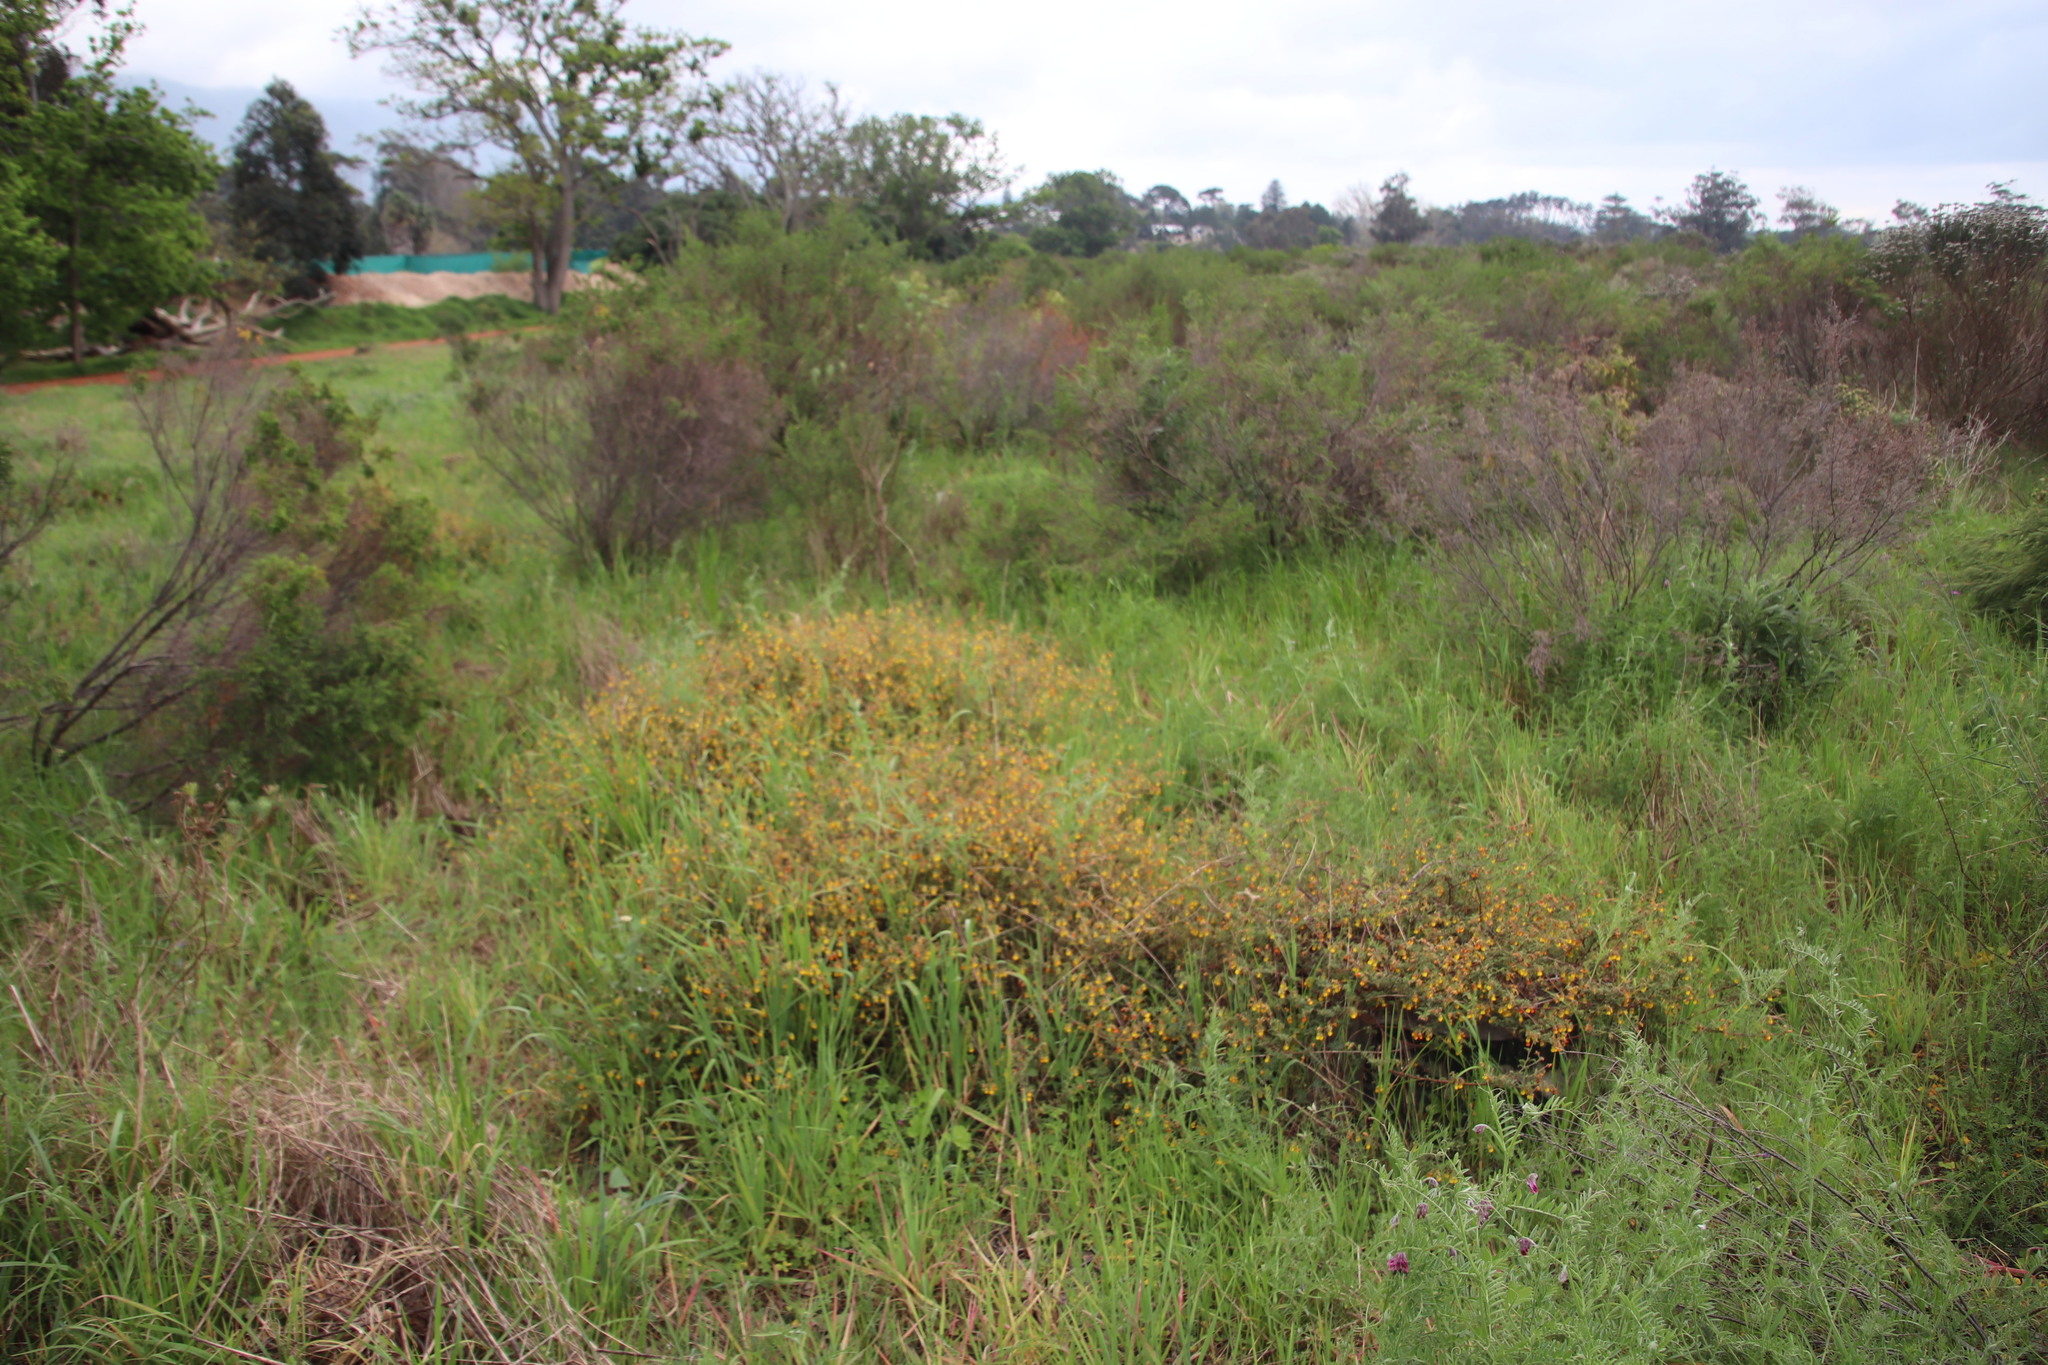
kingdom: Plantae
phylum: Tracheophyta
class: Magnoliopsida
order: Malvales
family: Malvaceae
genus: Hermannia
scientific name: Hermannia multiflora
